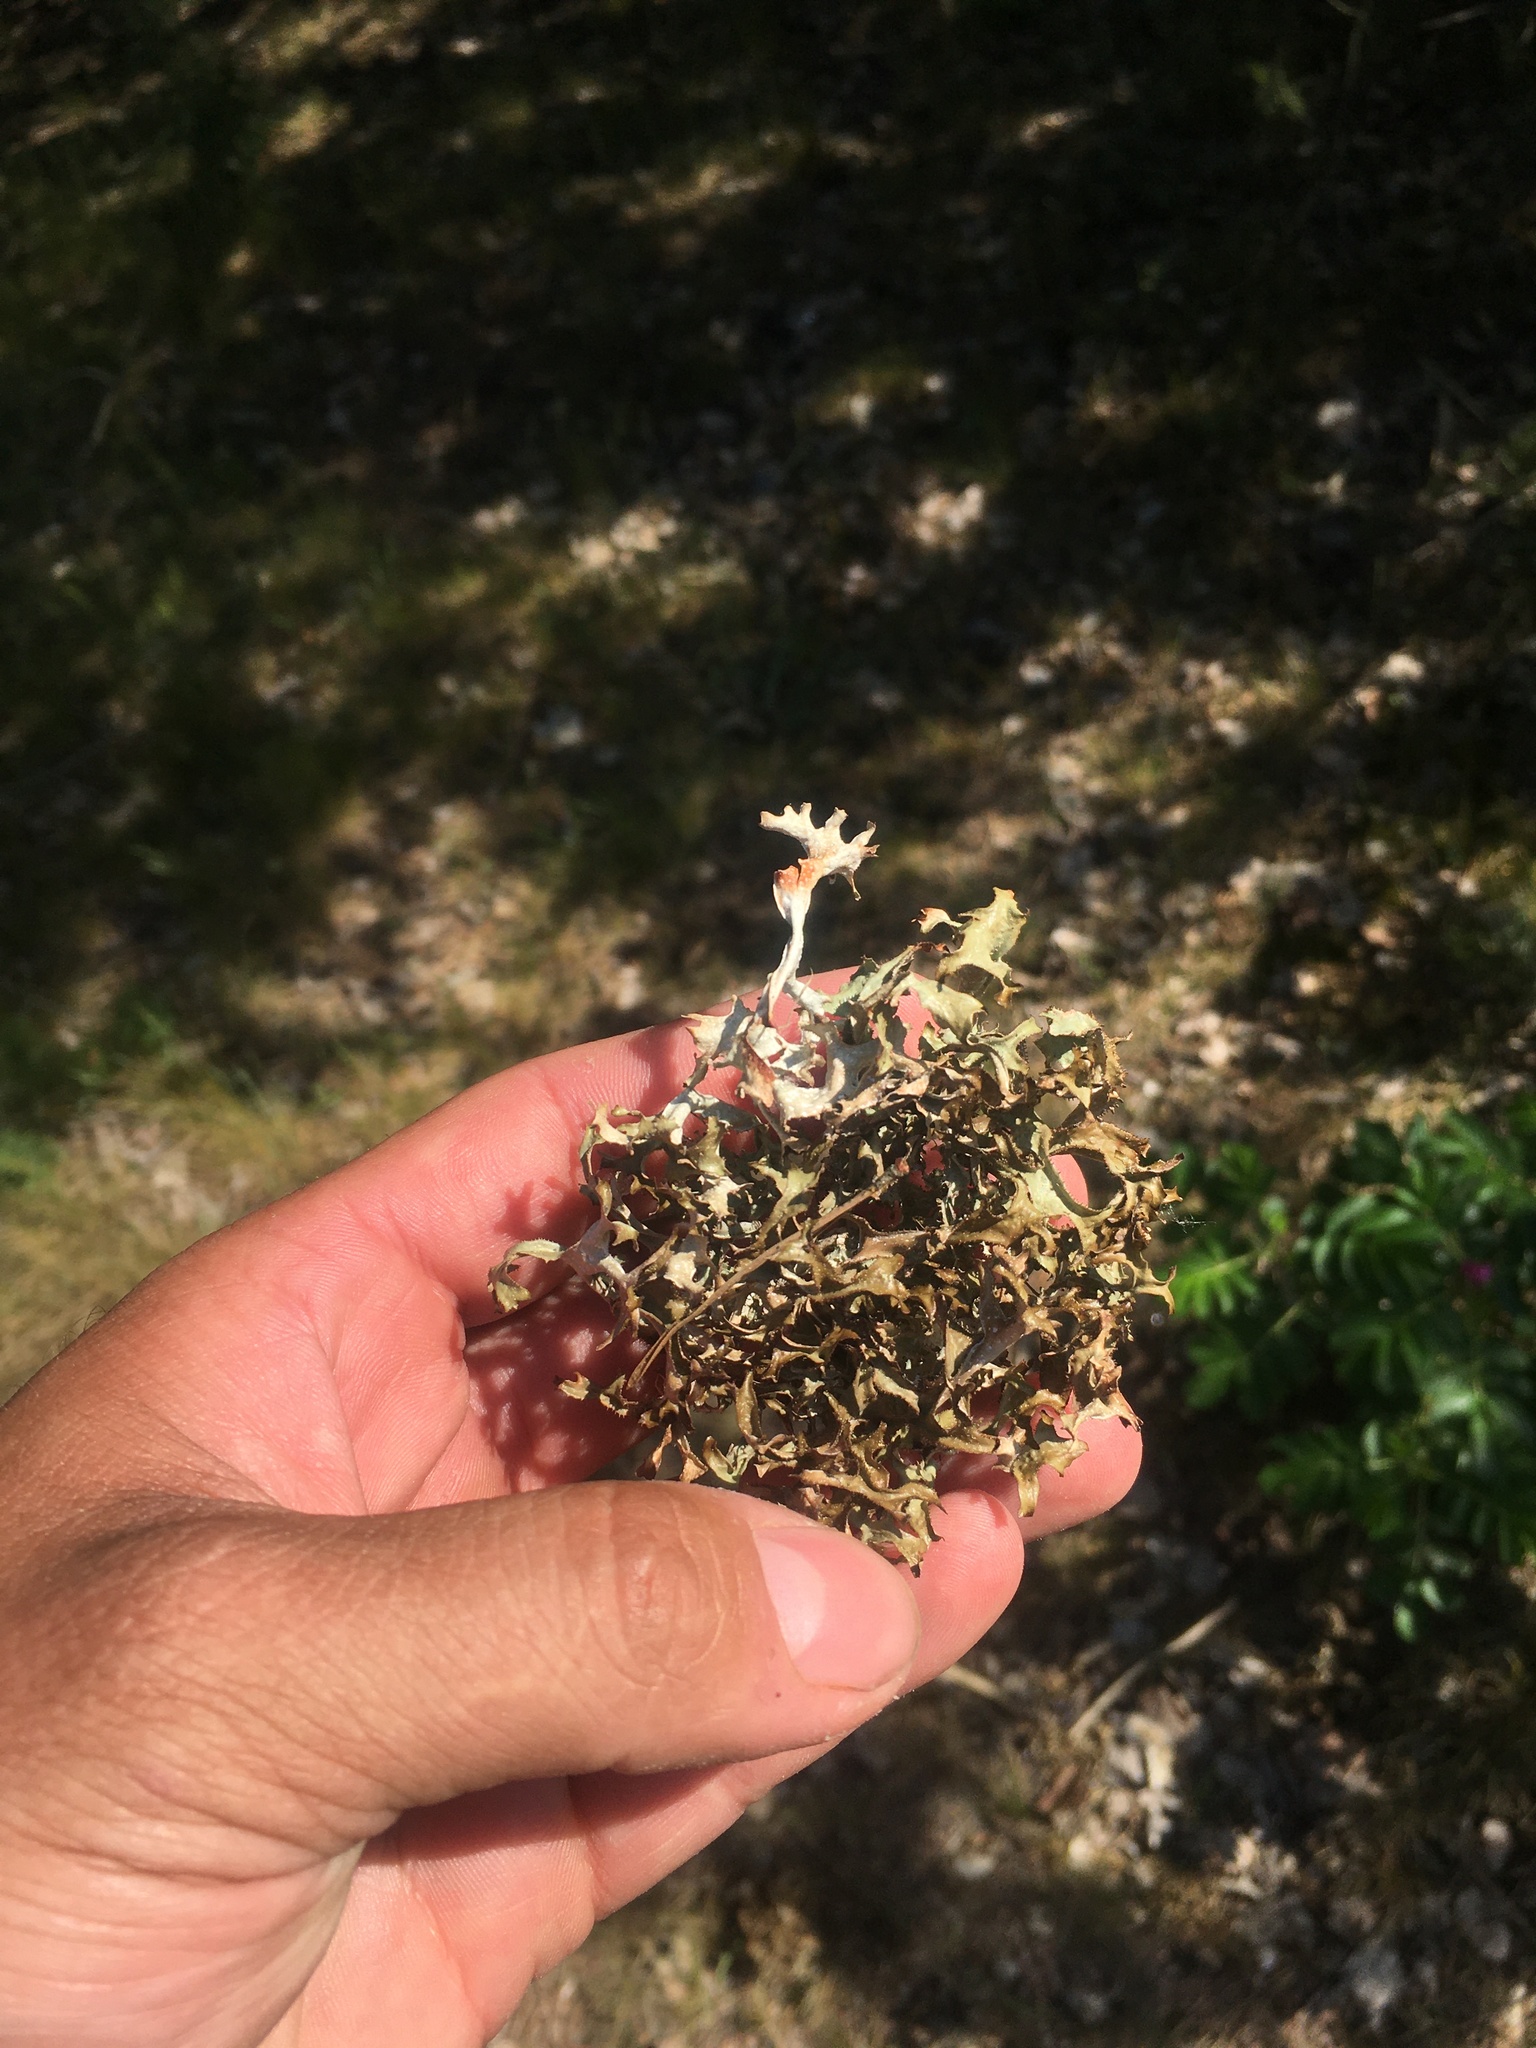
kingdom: Fungi
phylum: Ascomycota
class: Lecanoromycetes
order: Lecanorales
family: Parmeliaceae
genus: Cetraria
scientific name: Cetraria islandica
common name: Iceland lichen
